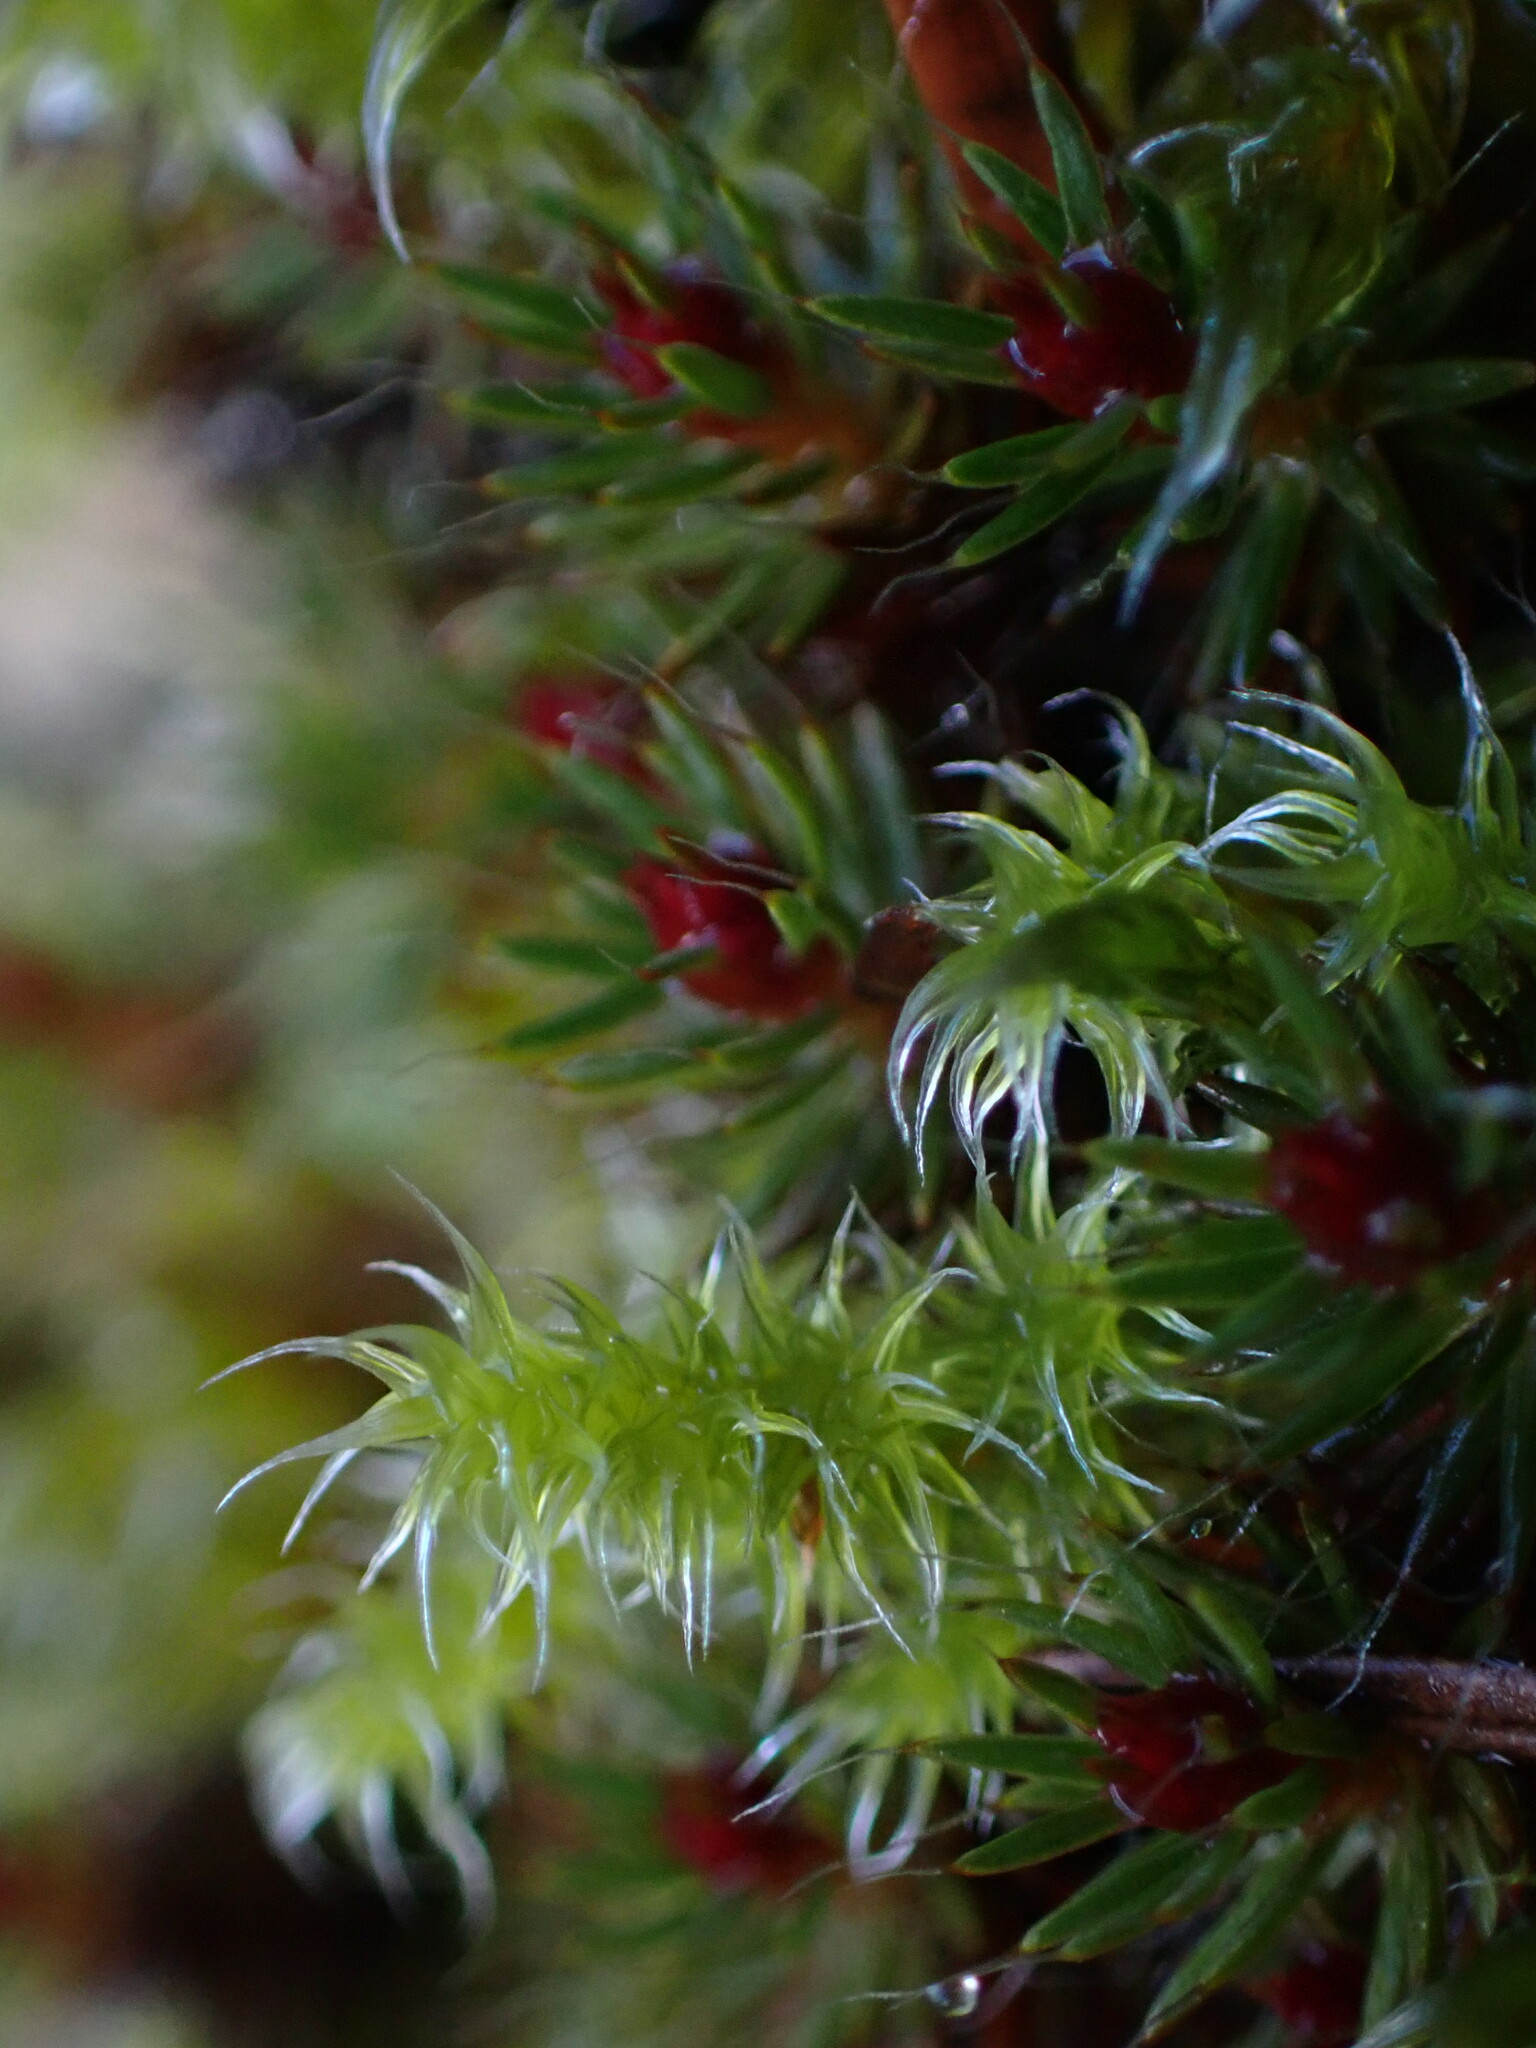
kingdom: Plantae
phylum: Bryophyta
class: Bryopsida
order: Grimmiales
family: Grimmiaceae
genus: Niphotrichum
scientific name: Niphotrichum elongatum
